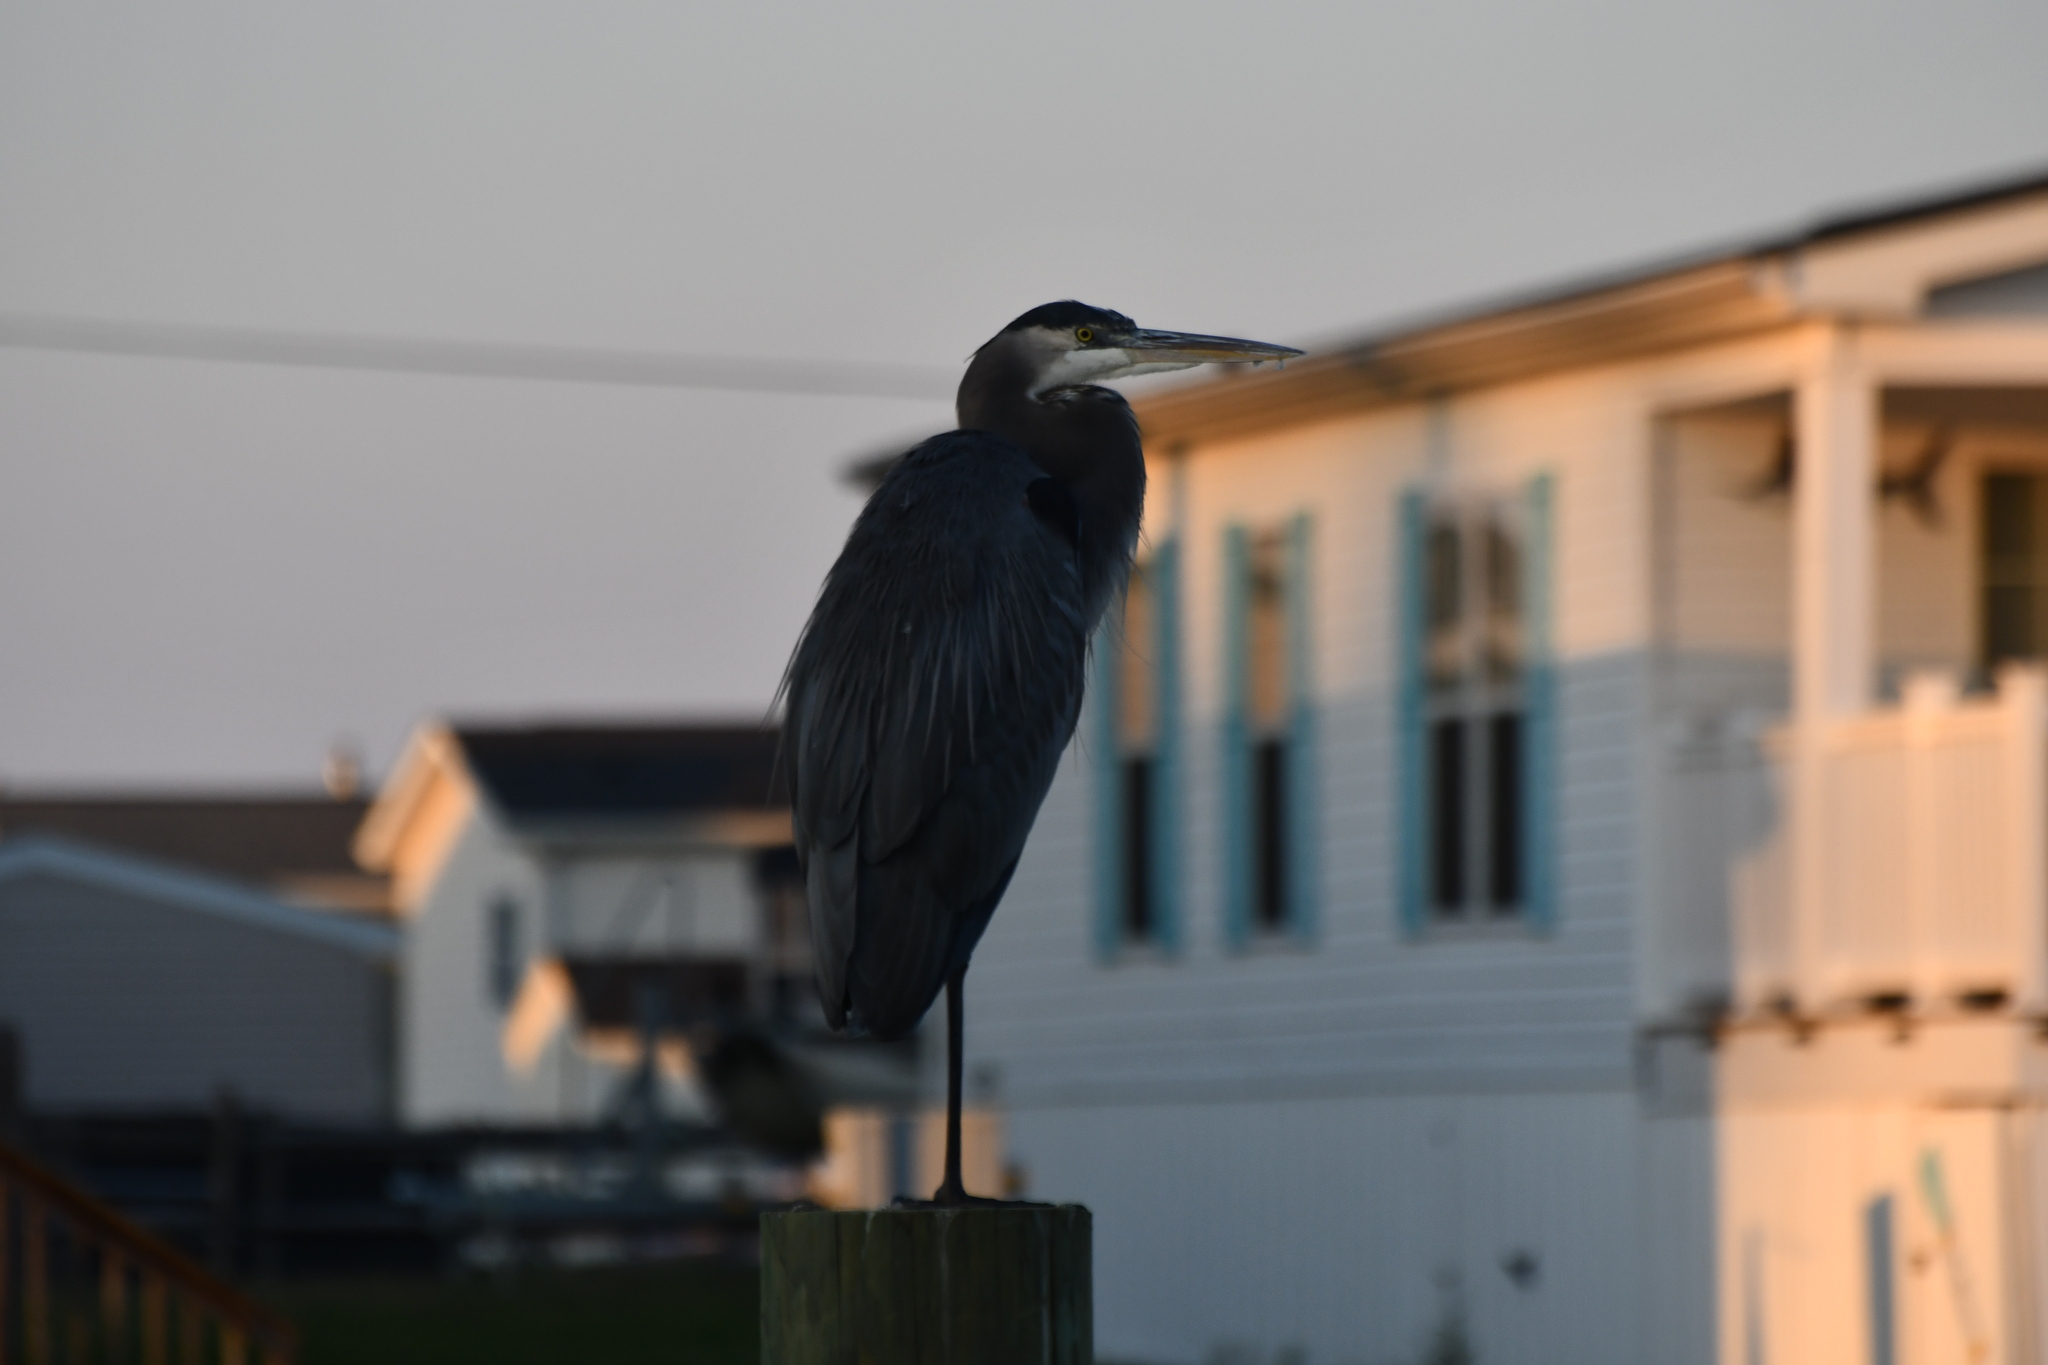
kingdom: Animalia
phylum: Chordata
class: Aves
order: Pelecaniformes
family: Ardeidae
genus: Ardea
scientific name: Ardea herodias
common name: Great blue heron
